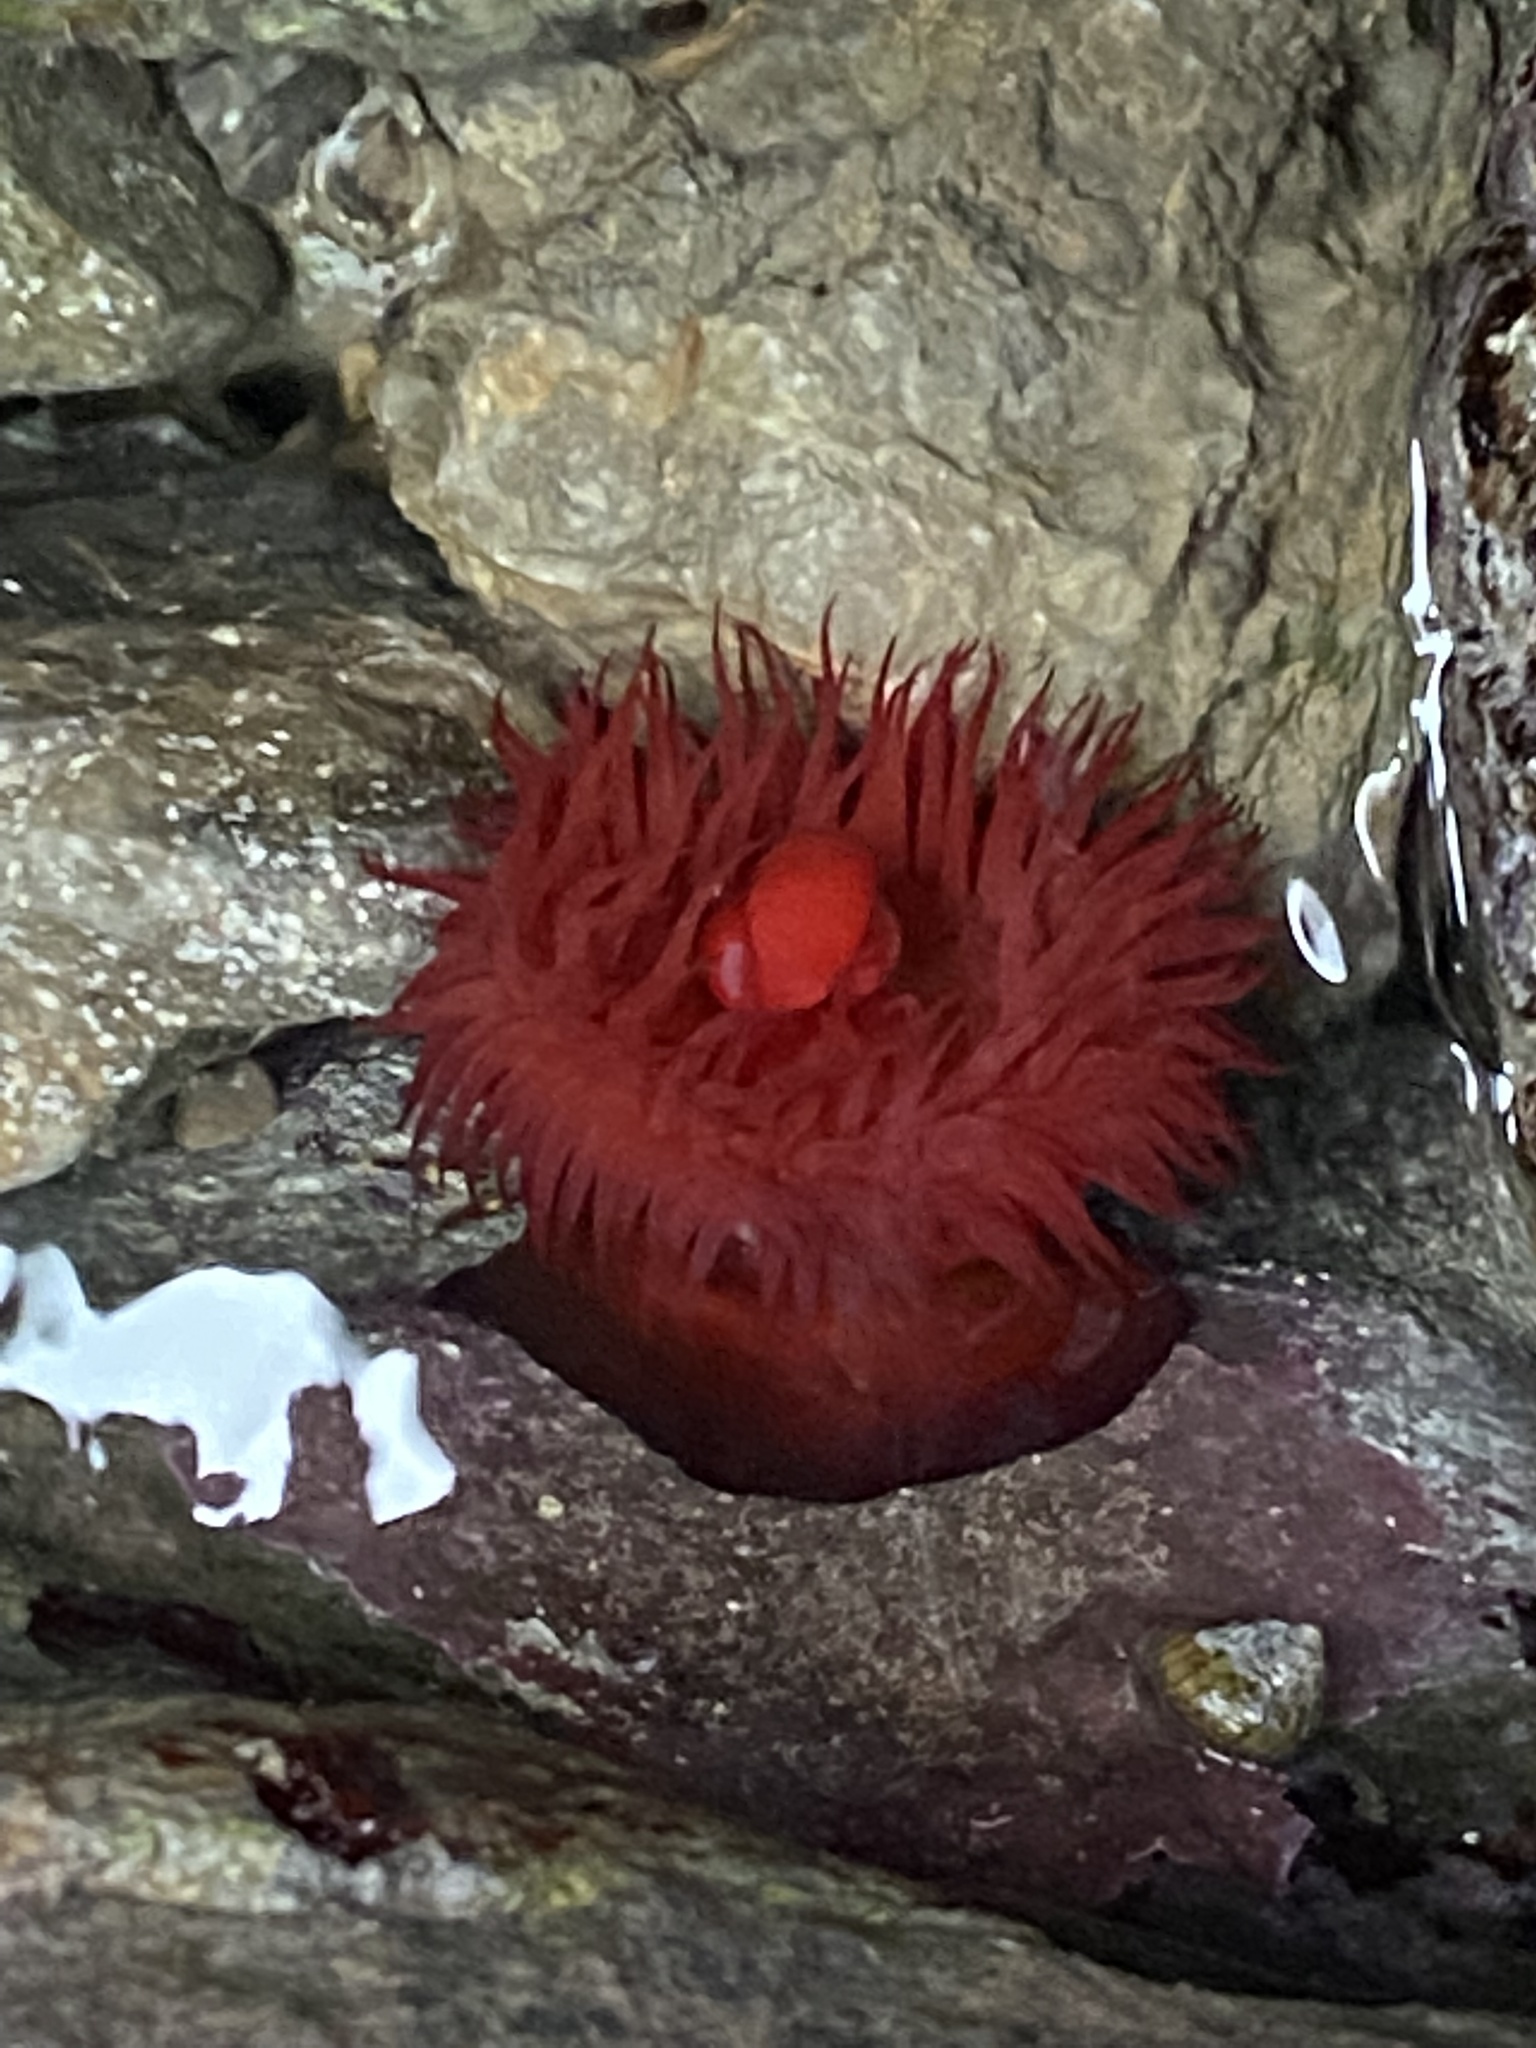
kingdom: Animalia
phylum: Cnidaria
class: Anthozoa
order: Actiniaria
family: Actiniidae
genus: Actinia
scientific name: Actinia mediterranea
